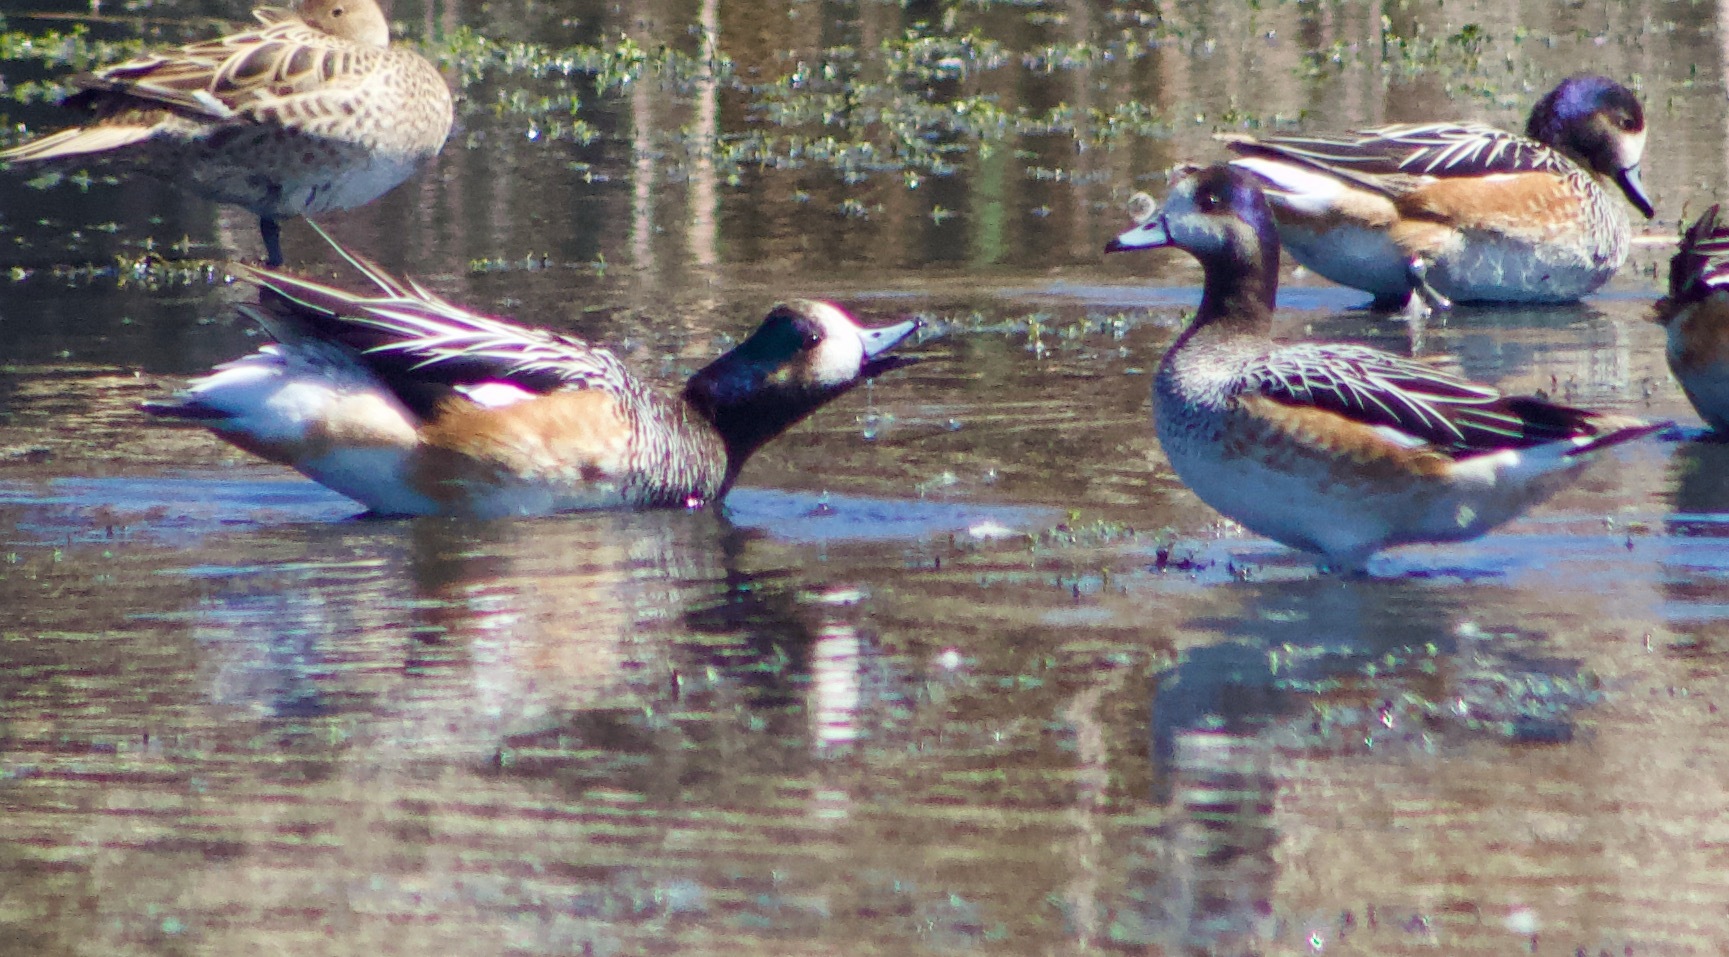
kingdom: Animalia
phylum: Chordata
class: Aves
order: Anseriformes
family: Anatidae
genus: Mareca
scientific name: Mareca sibilatrix
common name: Chiloe wigeon
